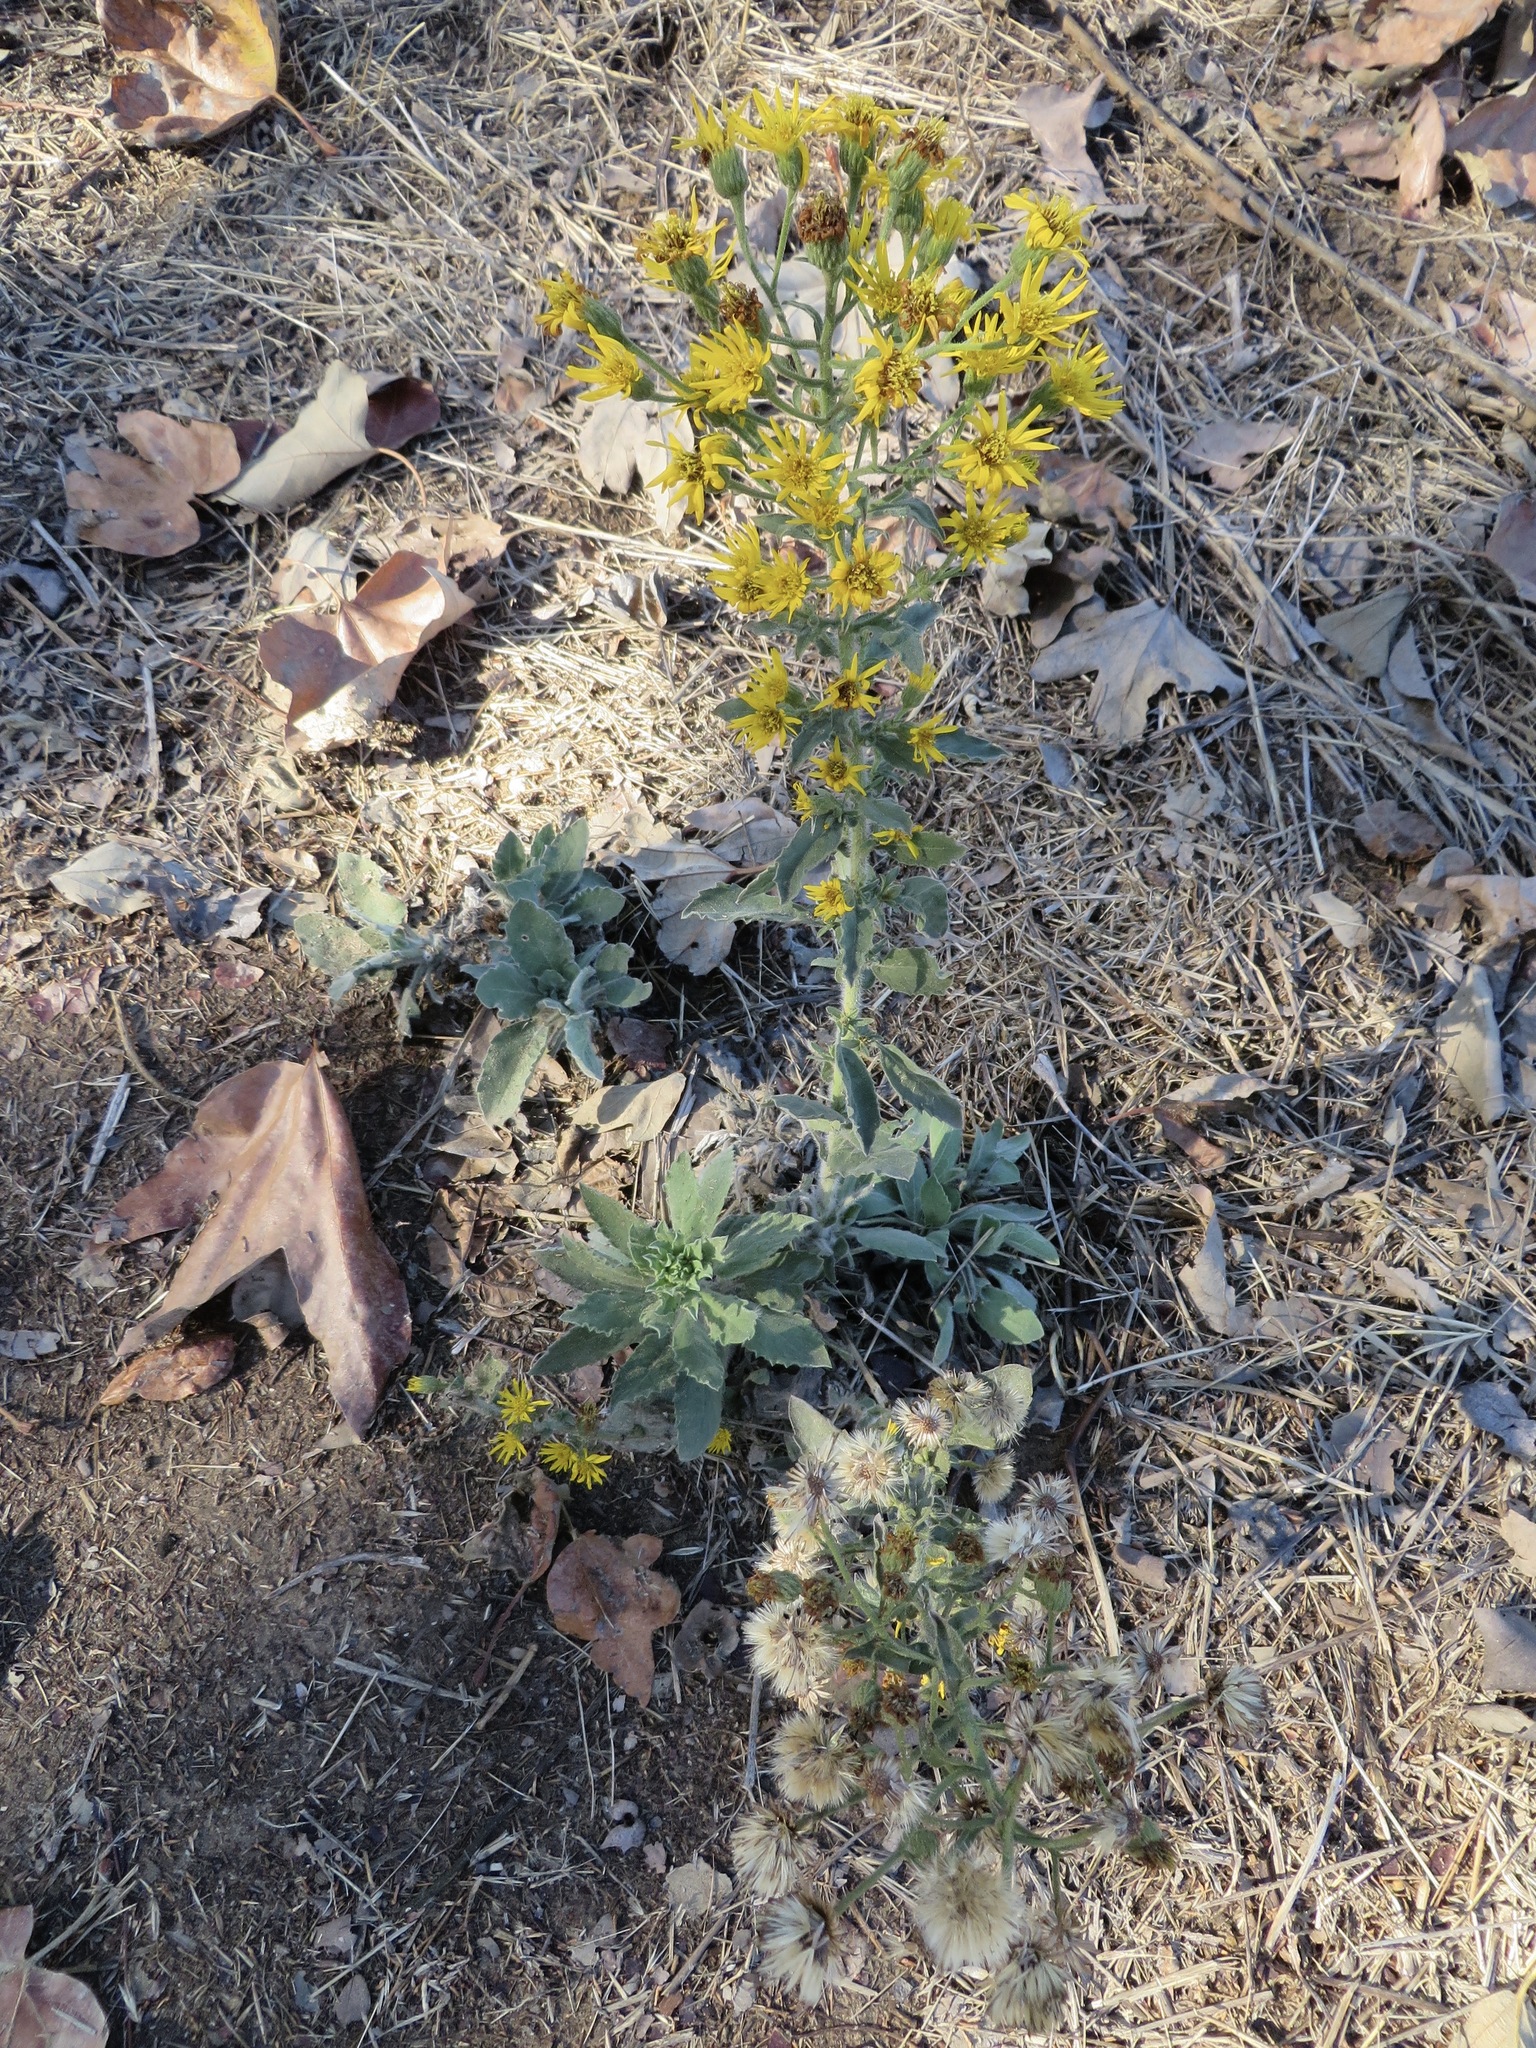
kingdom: Plantae
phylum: Tracheophyta
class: Magnoliopsida
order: Asterales
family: Asteraceae
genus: Heterotheca
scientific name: Heterotheca grandiflora
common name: Telegraphweed
